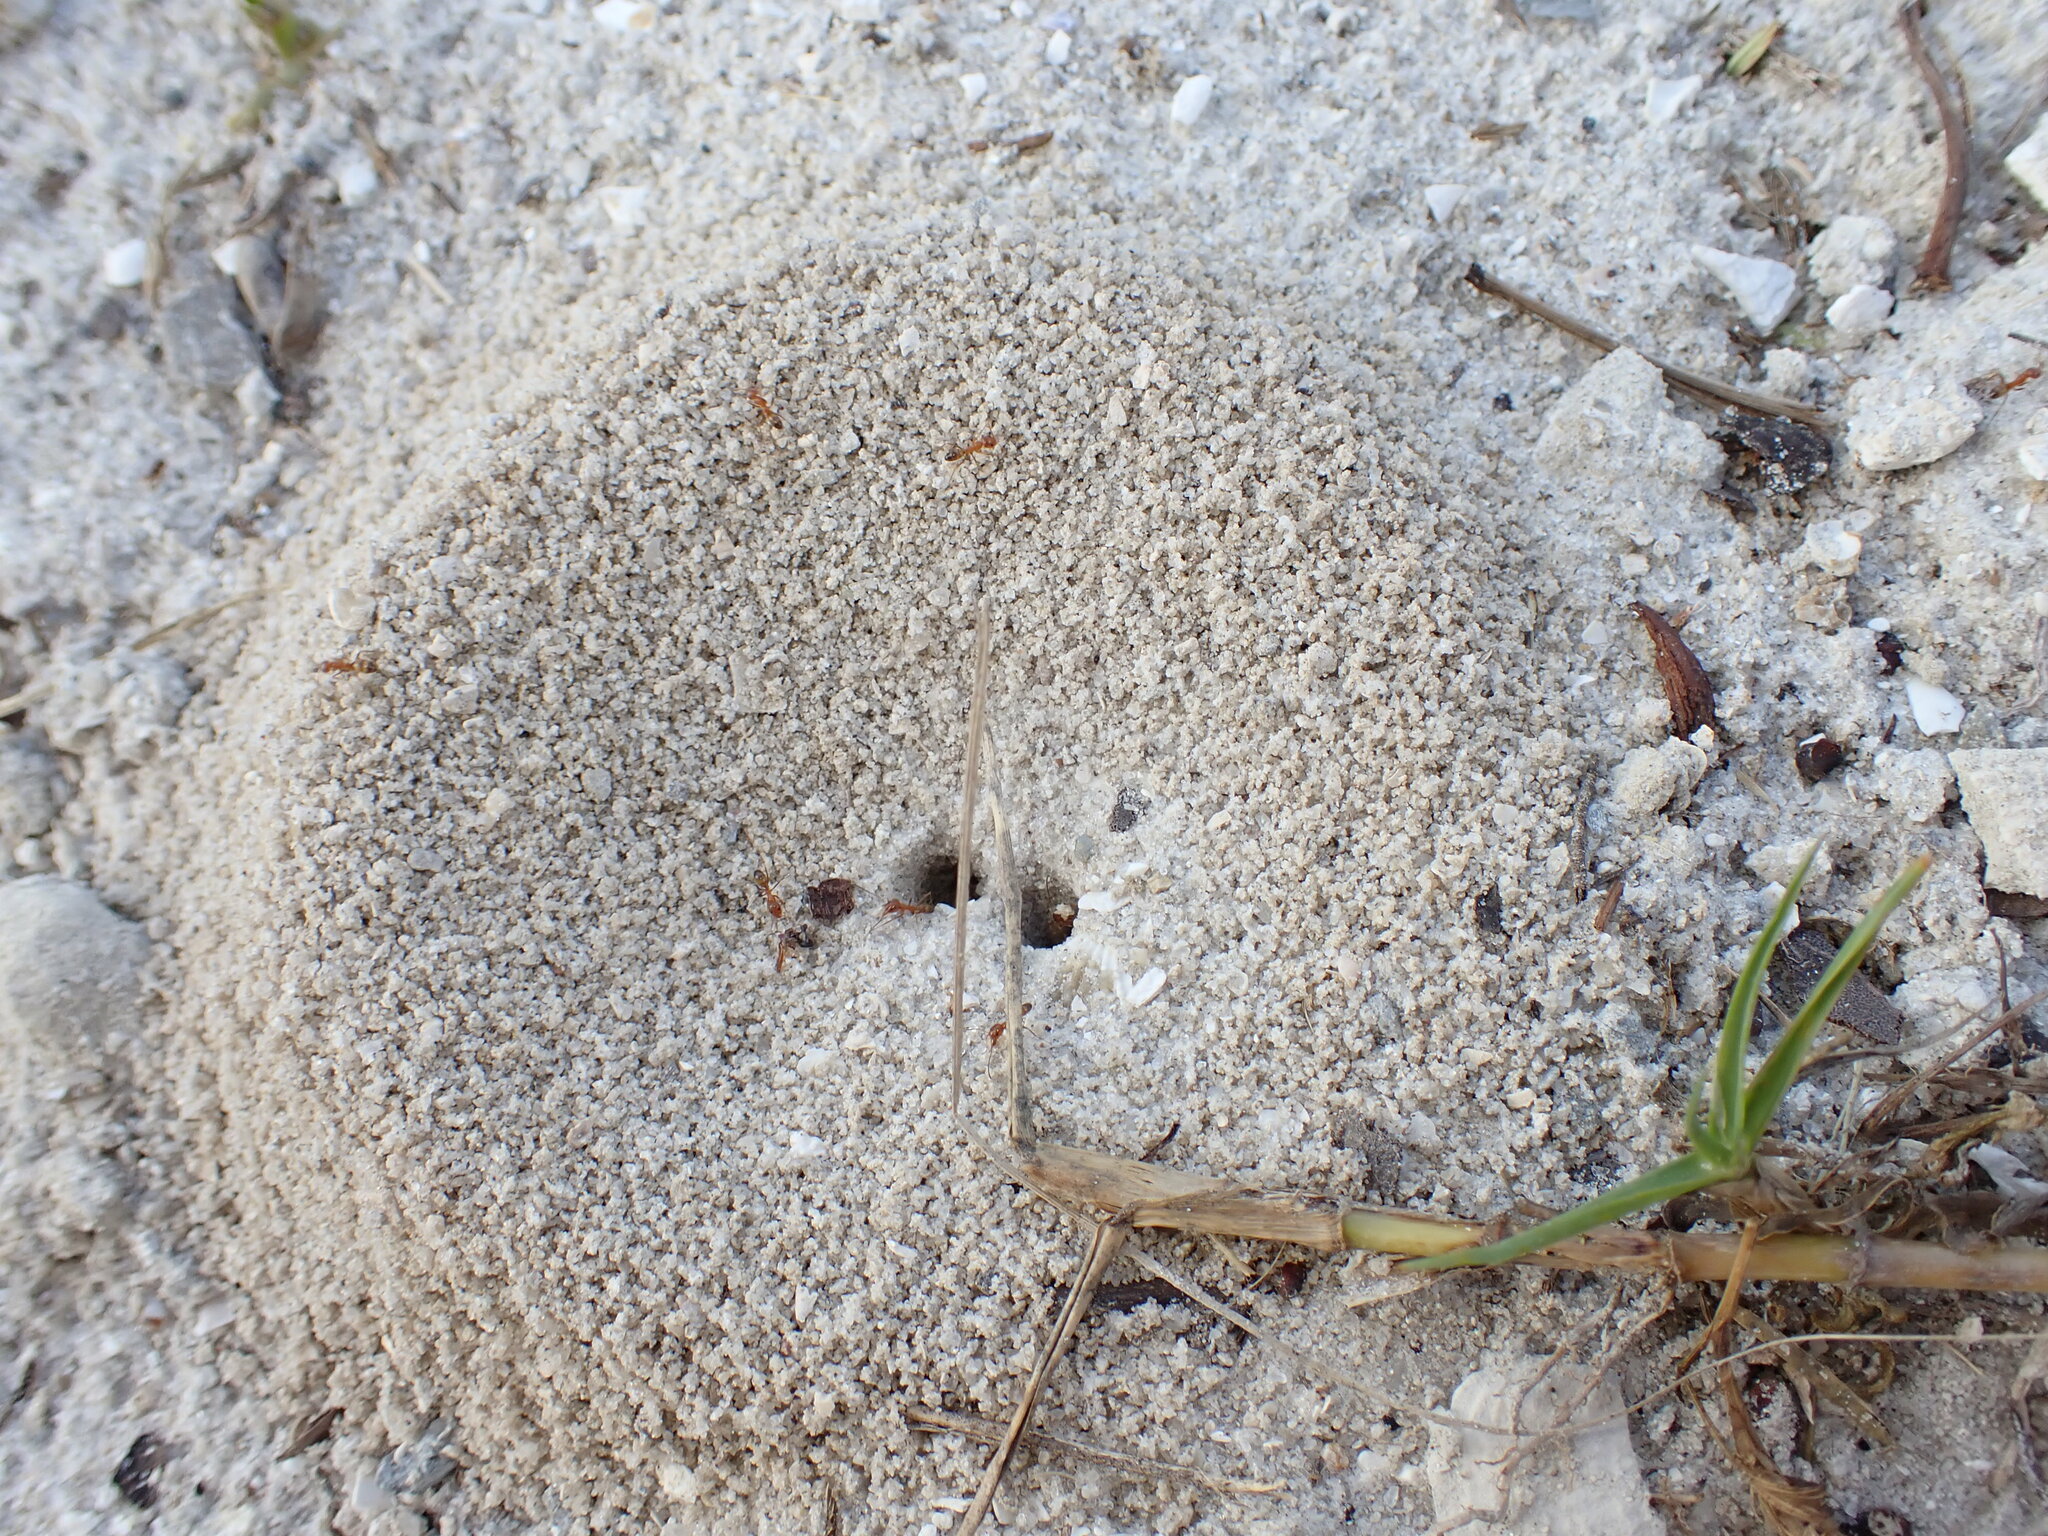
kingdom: Animalia
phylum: Arthropoda
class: Insecta
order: Hymenoptera
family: Formicidae
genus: Dorymyrmex
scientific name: Dorymyrmex bureni
